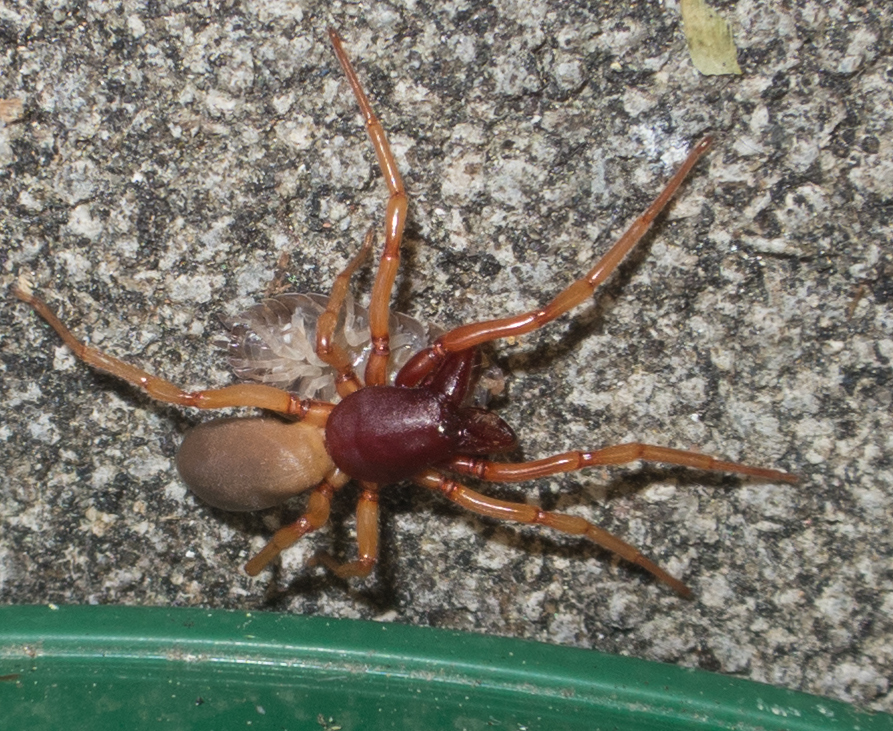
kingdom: Animalia
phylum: Arthropoda
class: Arachnida
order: Araneae
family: Dysderidae
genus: Dysdera
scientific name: Dysdera crocata
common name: Woodlouse spider
